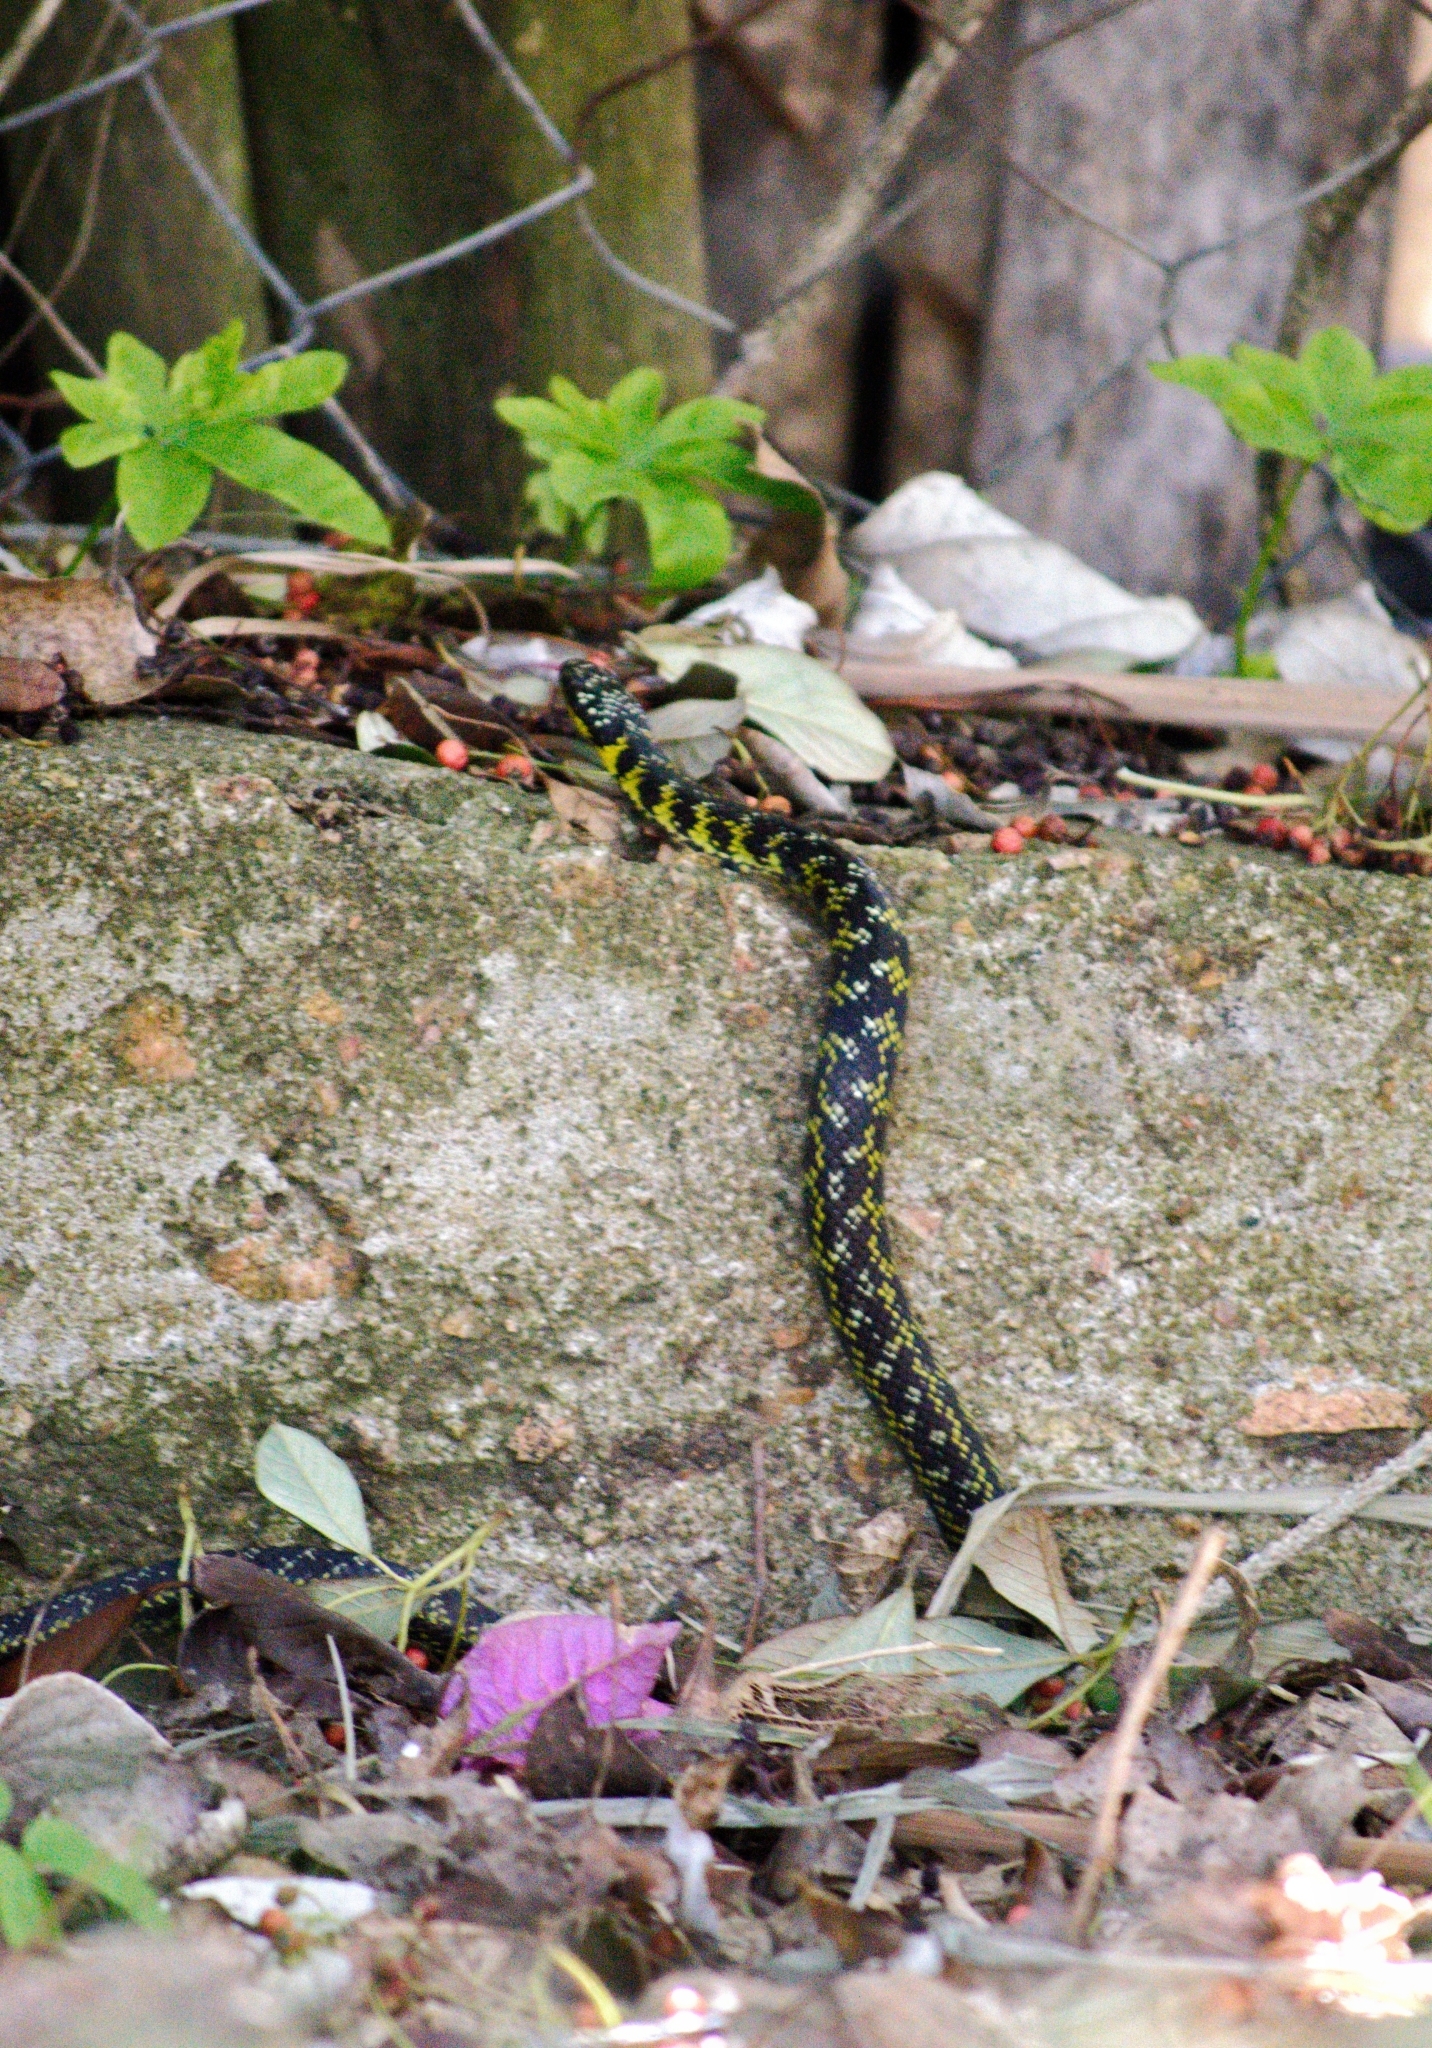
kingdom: Animalia
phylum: Chordata
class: Squamata
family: Colubridae
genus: Erythrolamprus
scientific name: Erythrolamprus poecilogyrus
